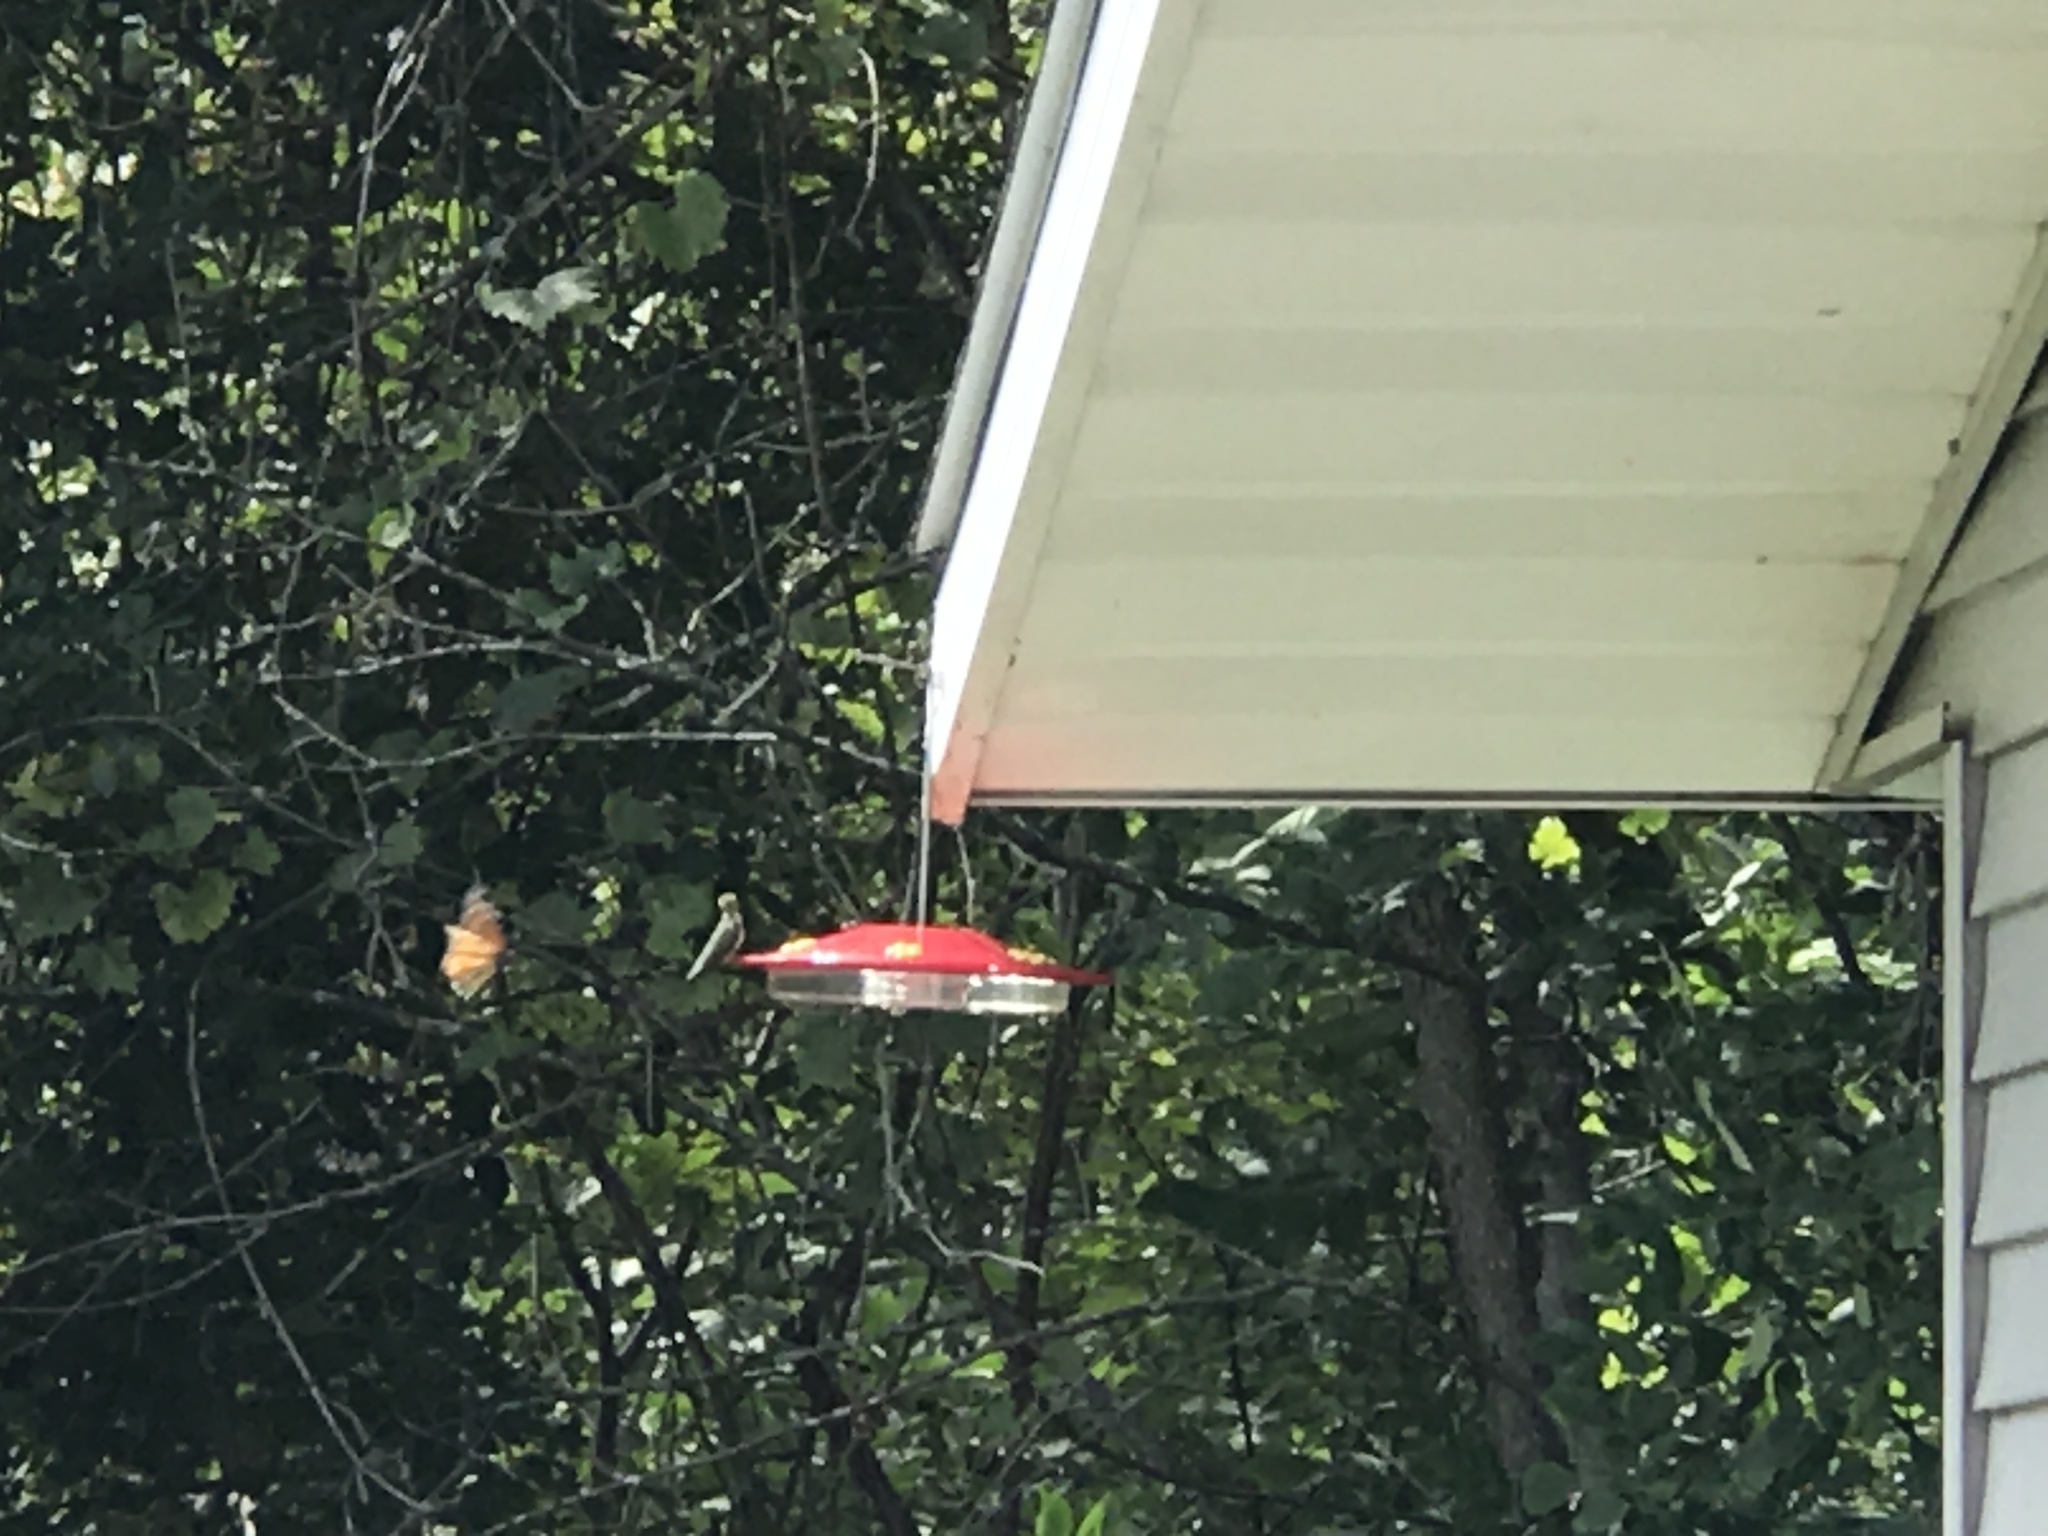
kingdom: Animalia
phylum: Chordata
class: Aves
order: Apodiformes
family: Trochilidae
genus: Archilochus
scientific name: Archilochus colubris
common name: Ruby-throated hummingbird
